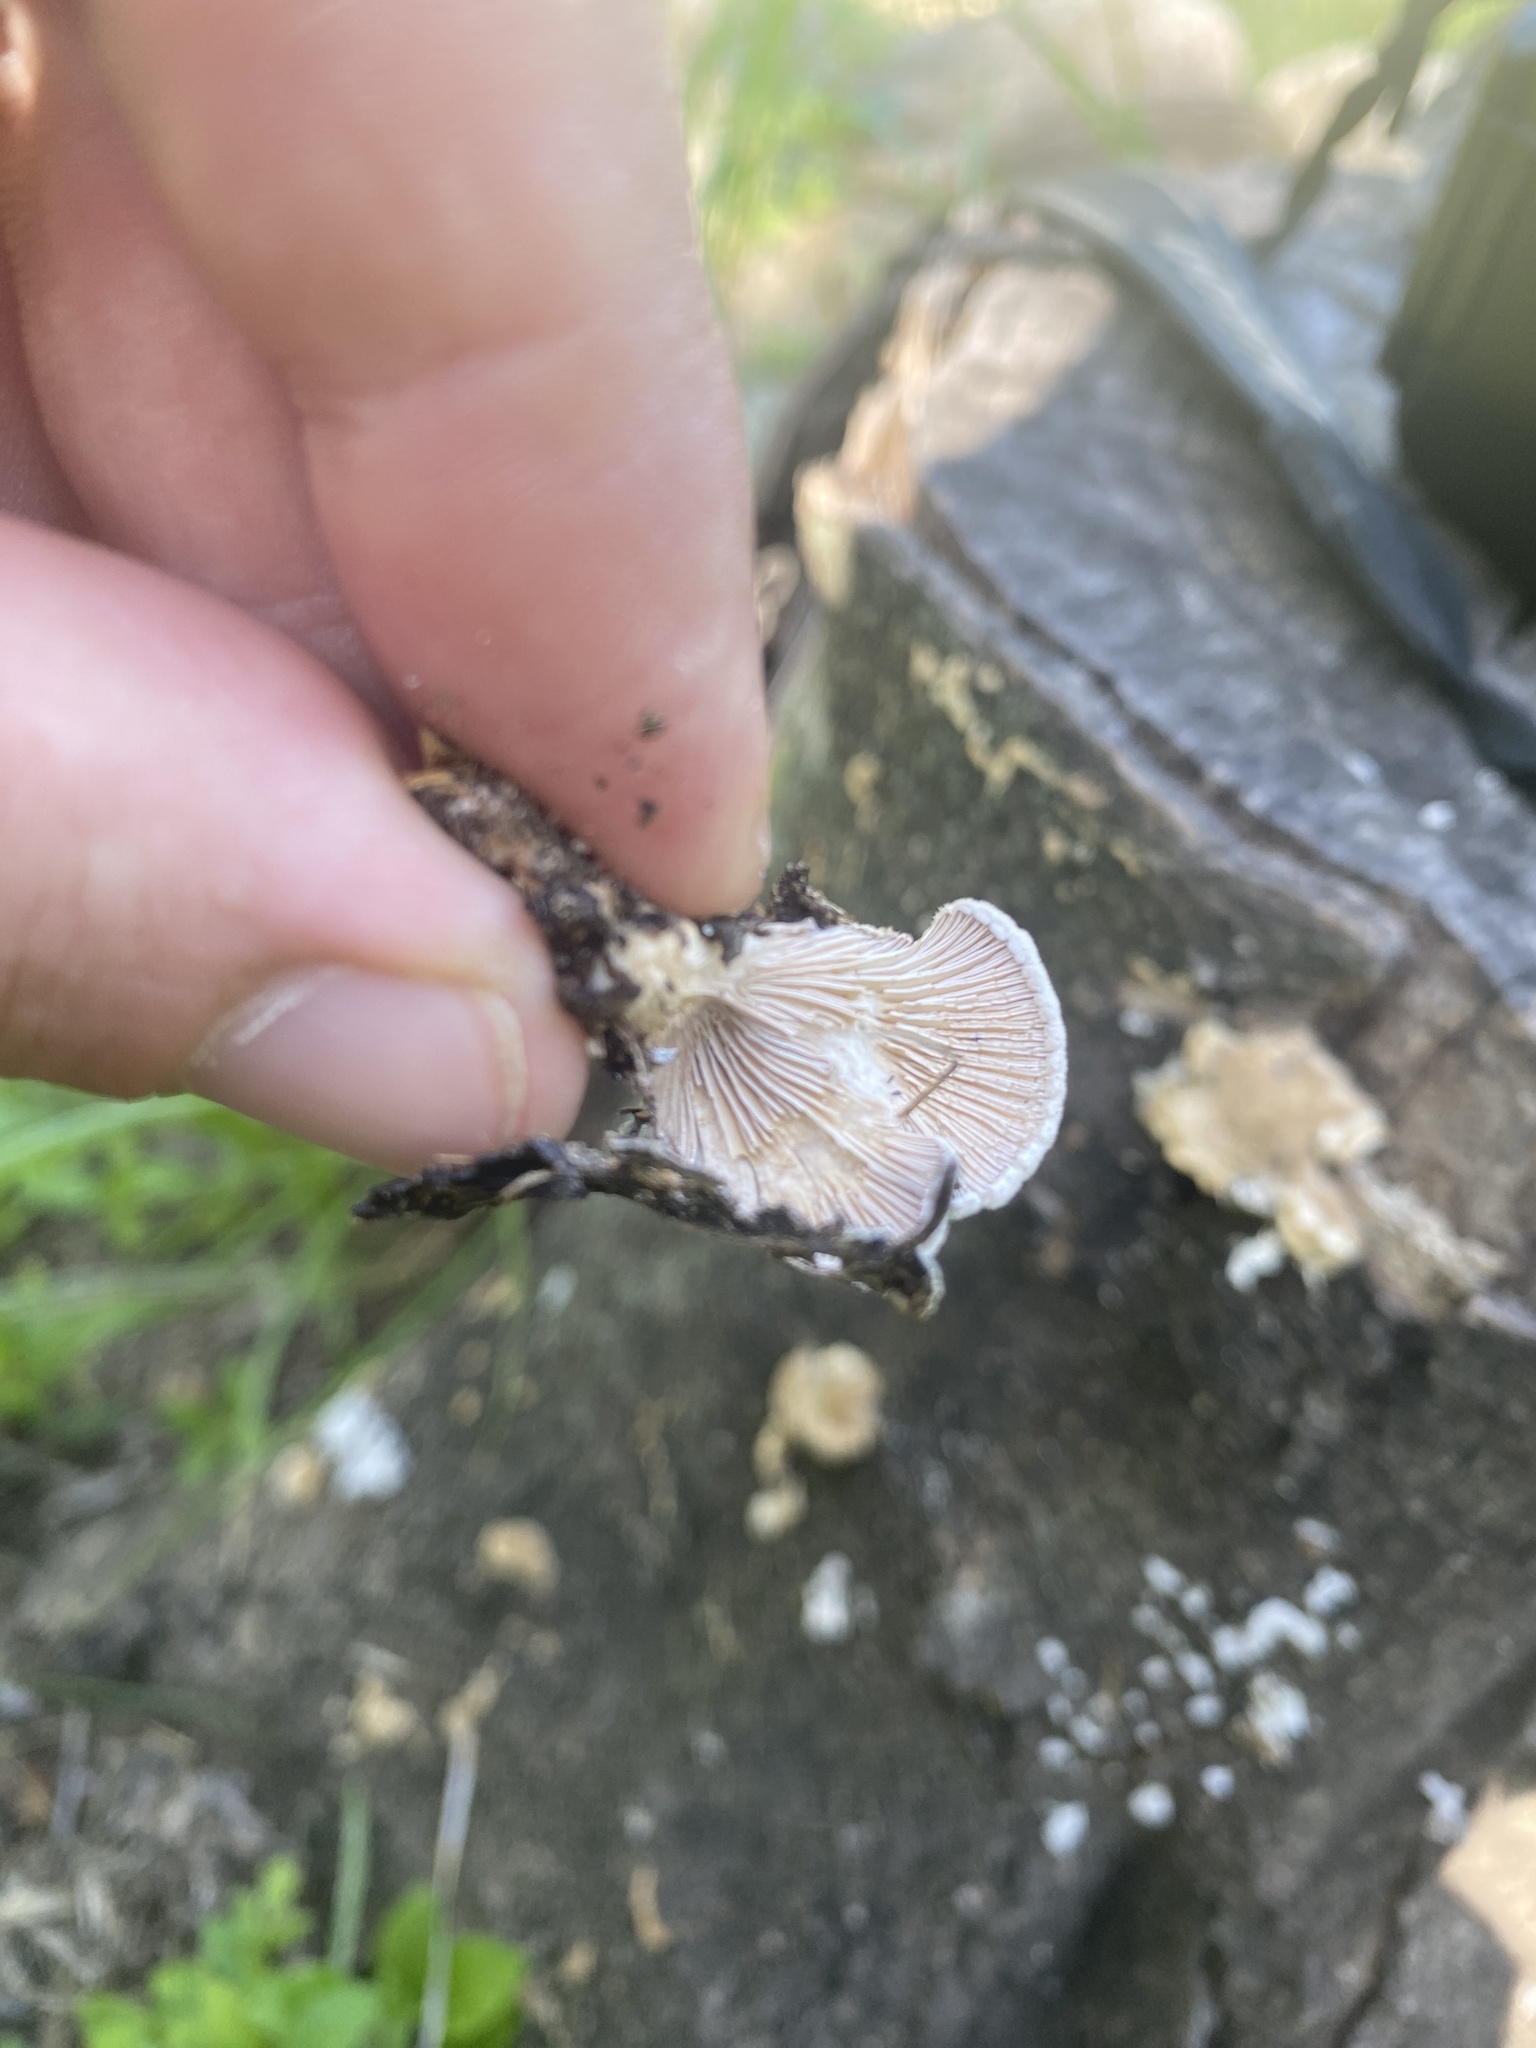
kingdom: Fungi
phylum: Basidiomycota
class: Agaricomycetes
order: Agaricales
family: Schizophyllaceae
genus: Schizophyllum
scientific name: Schizophyllum commune
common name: Common porecrust
